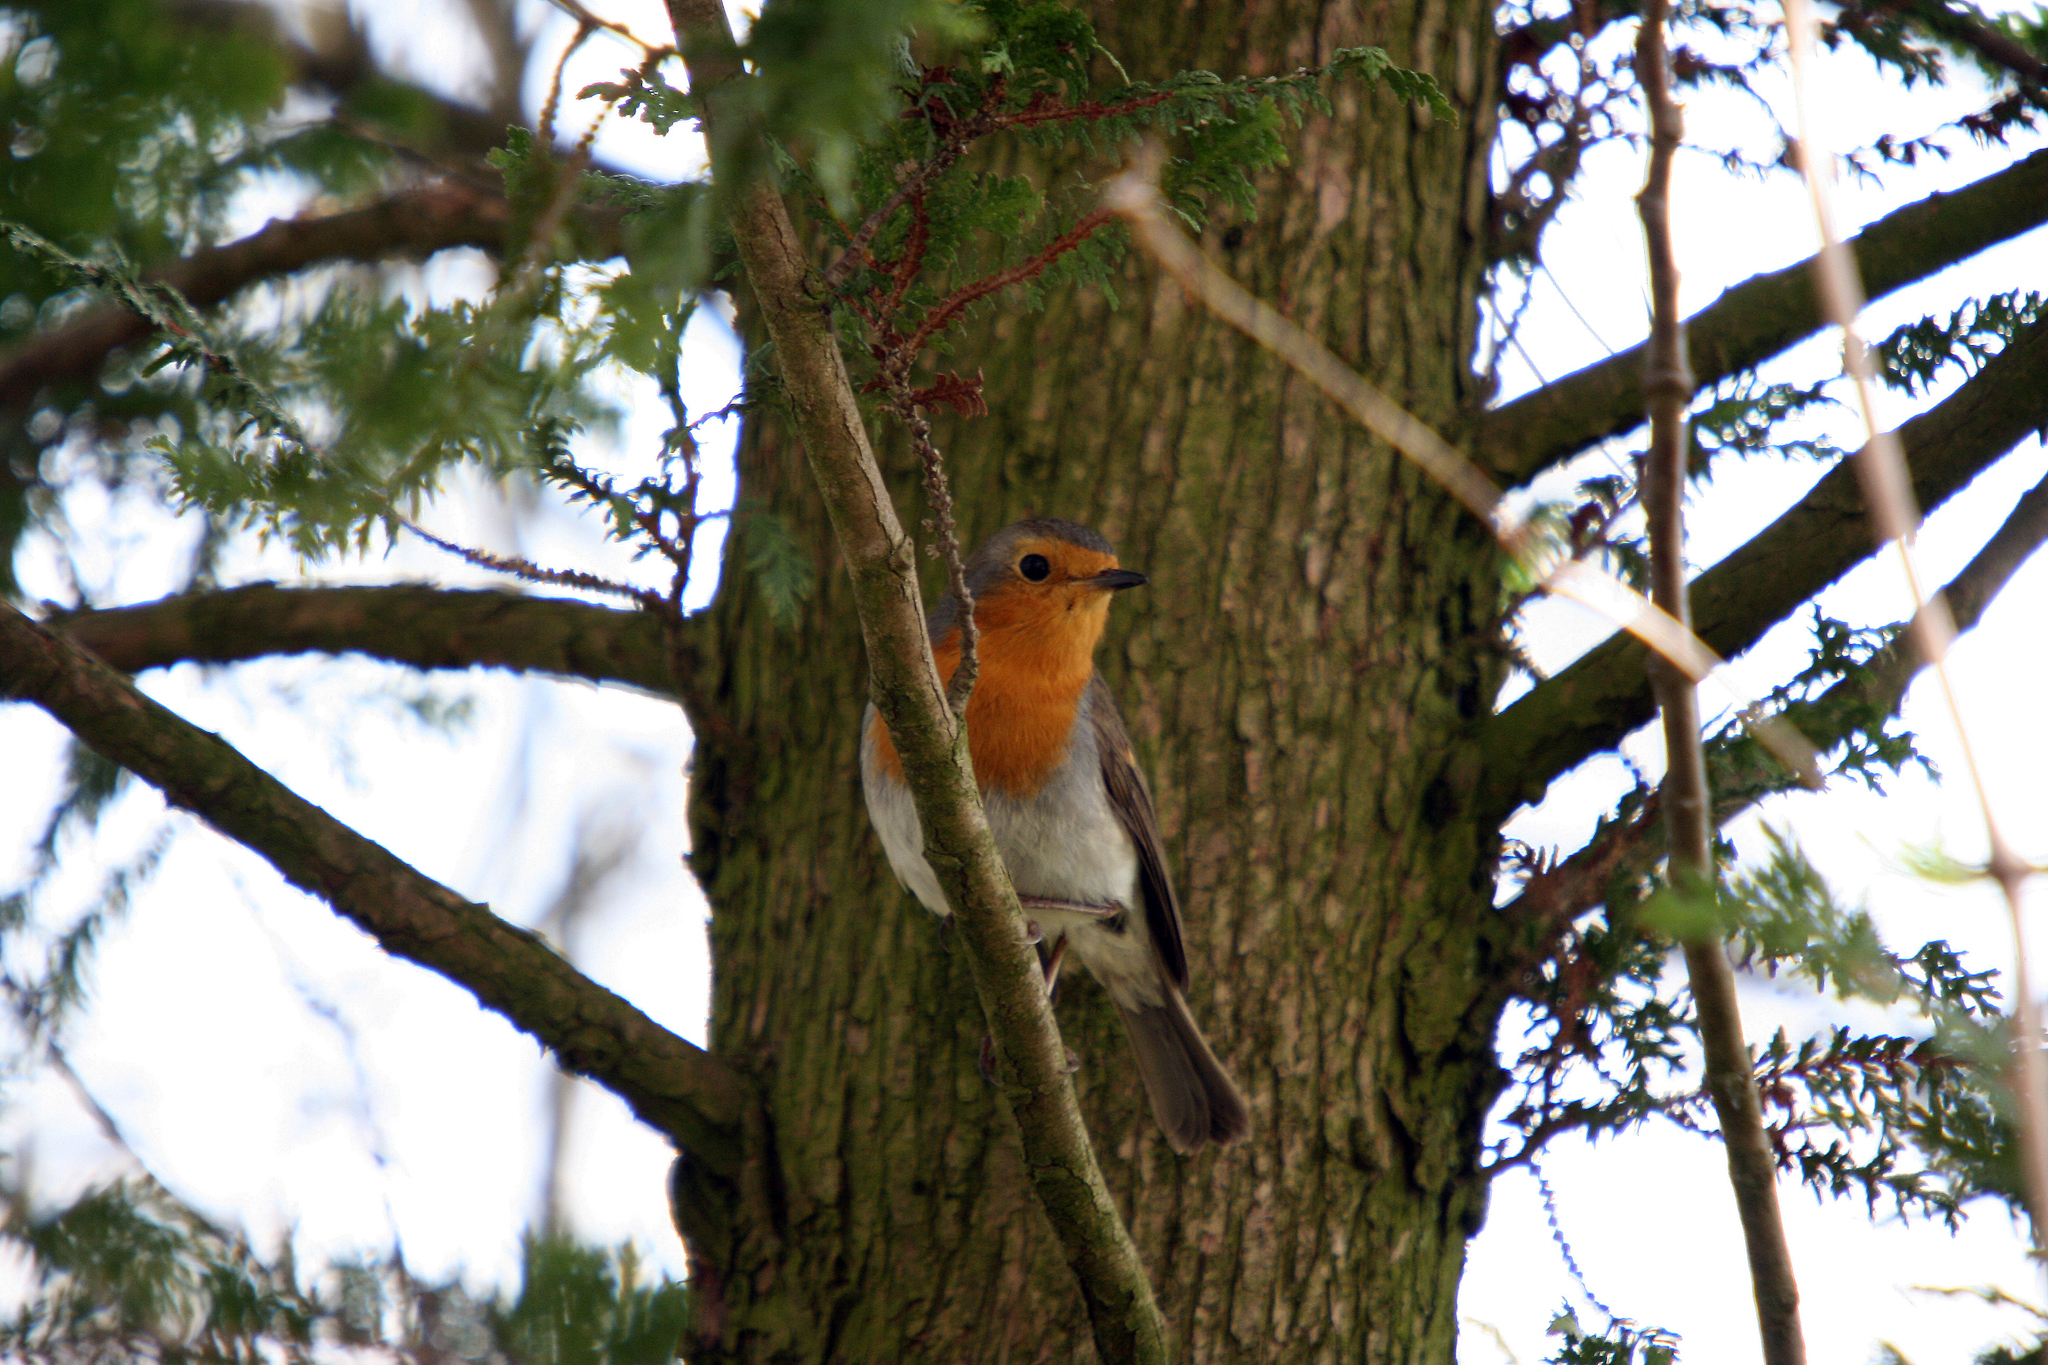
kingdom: Animalia
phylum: Chordata
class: Aves
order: Passeriformes
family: Muscicapidae
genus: Erithacus
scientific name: Erithacus rubecula
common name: European robin
